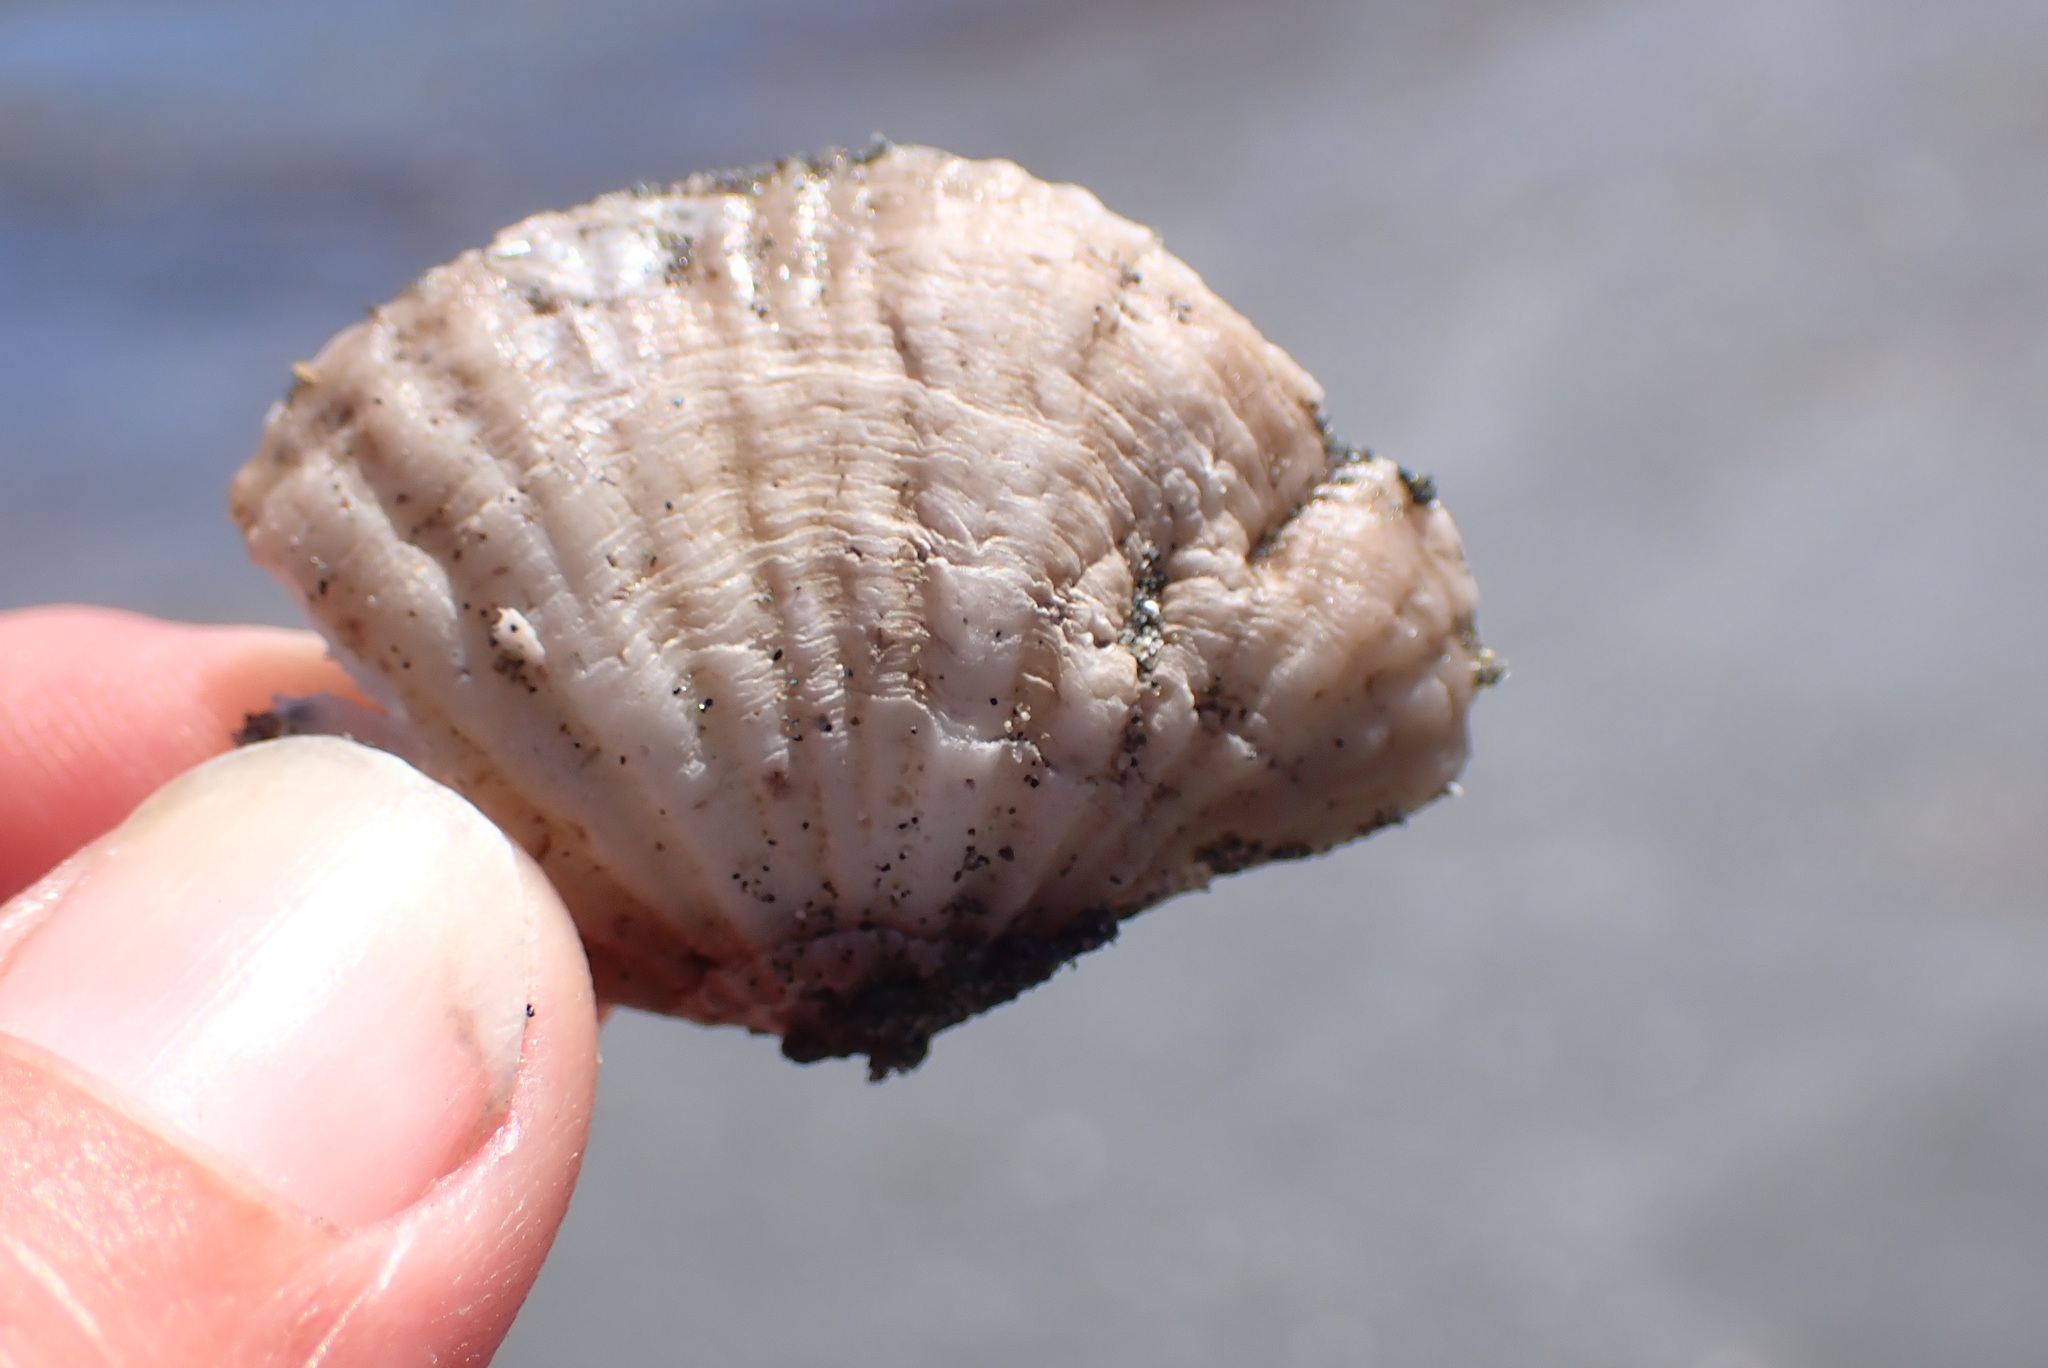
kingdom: Animalia
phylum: Brachiopoda
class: Rhynchonellata
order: Terebratulida
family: Terebrataliidae
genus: Terebratalia
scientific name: Terebratalia transversa
